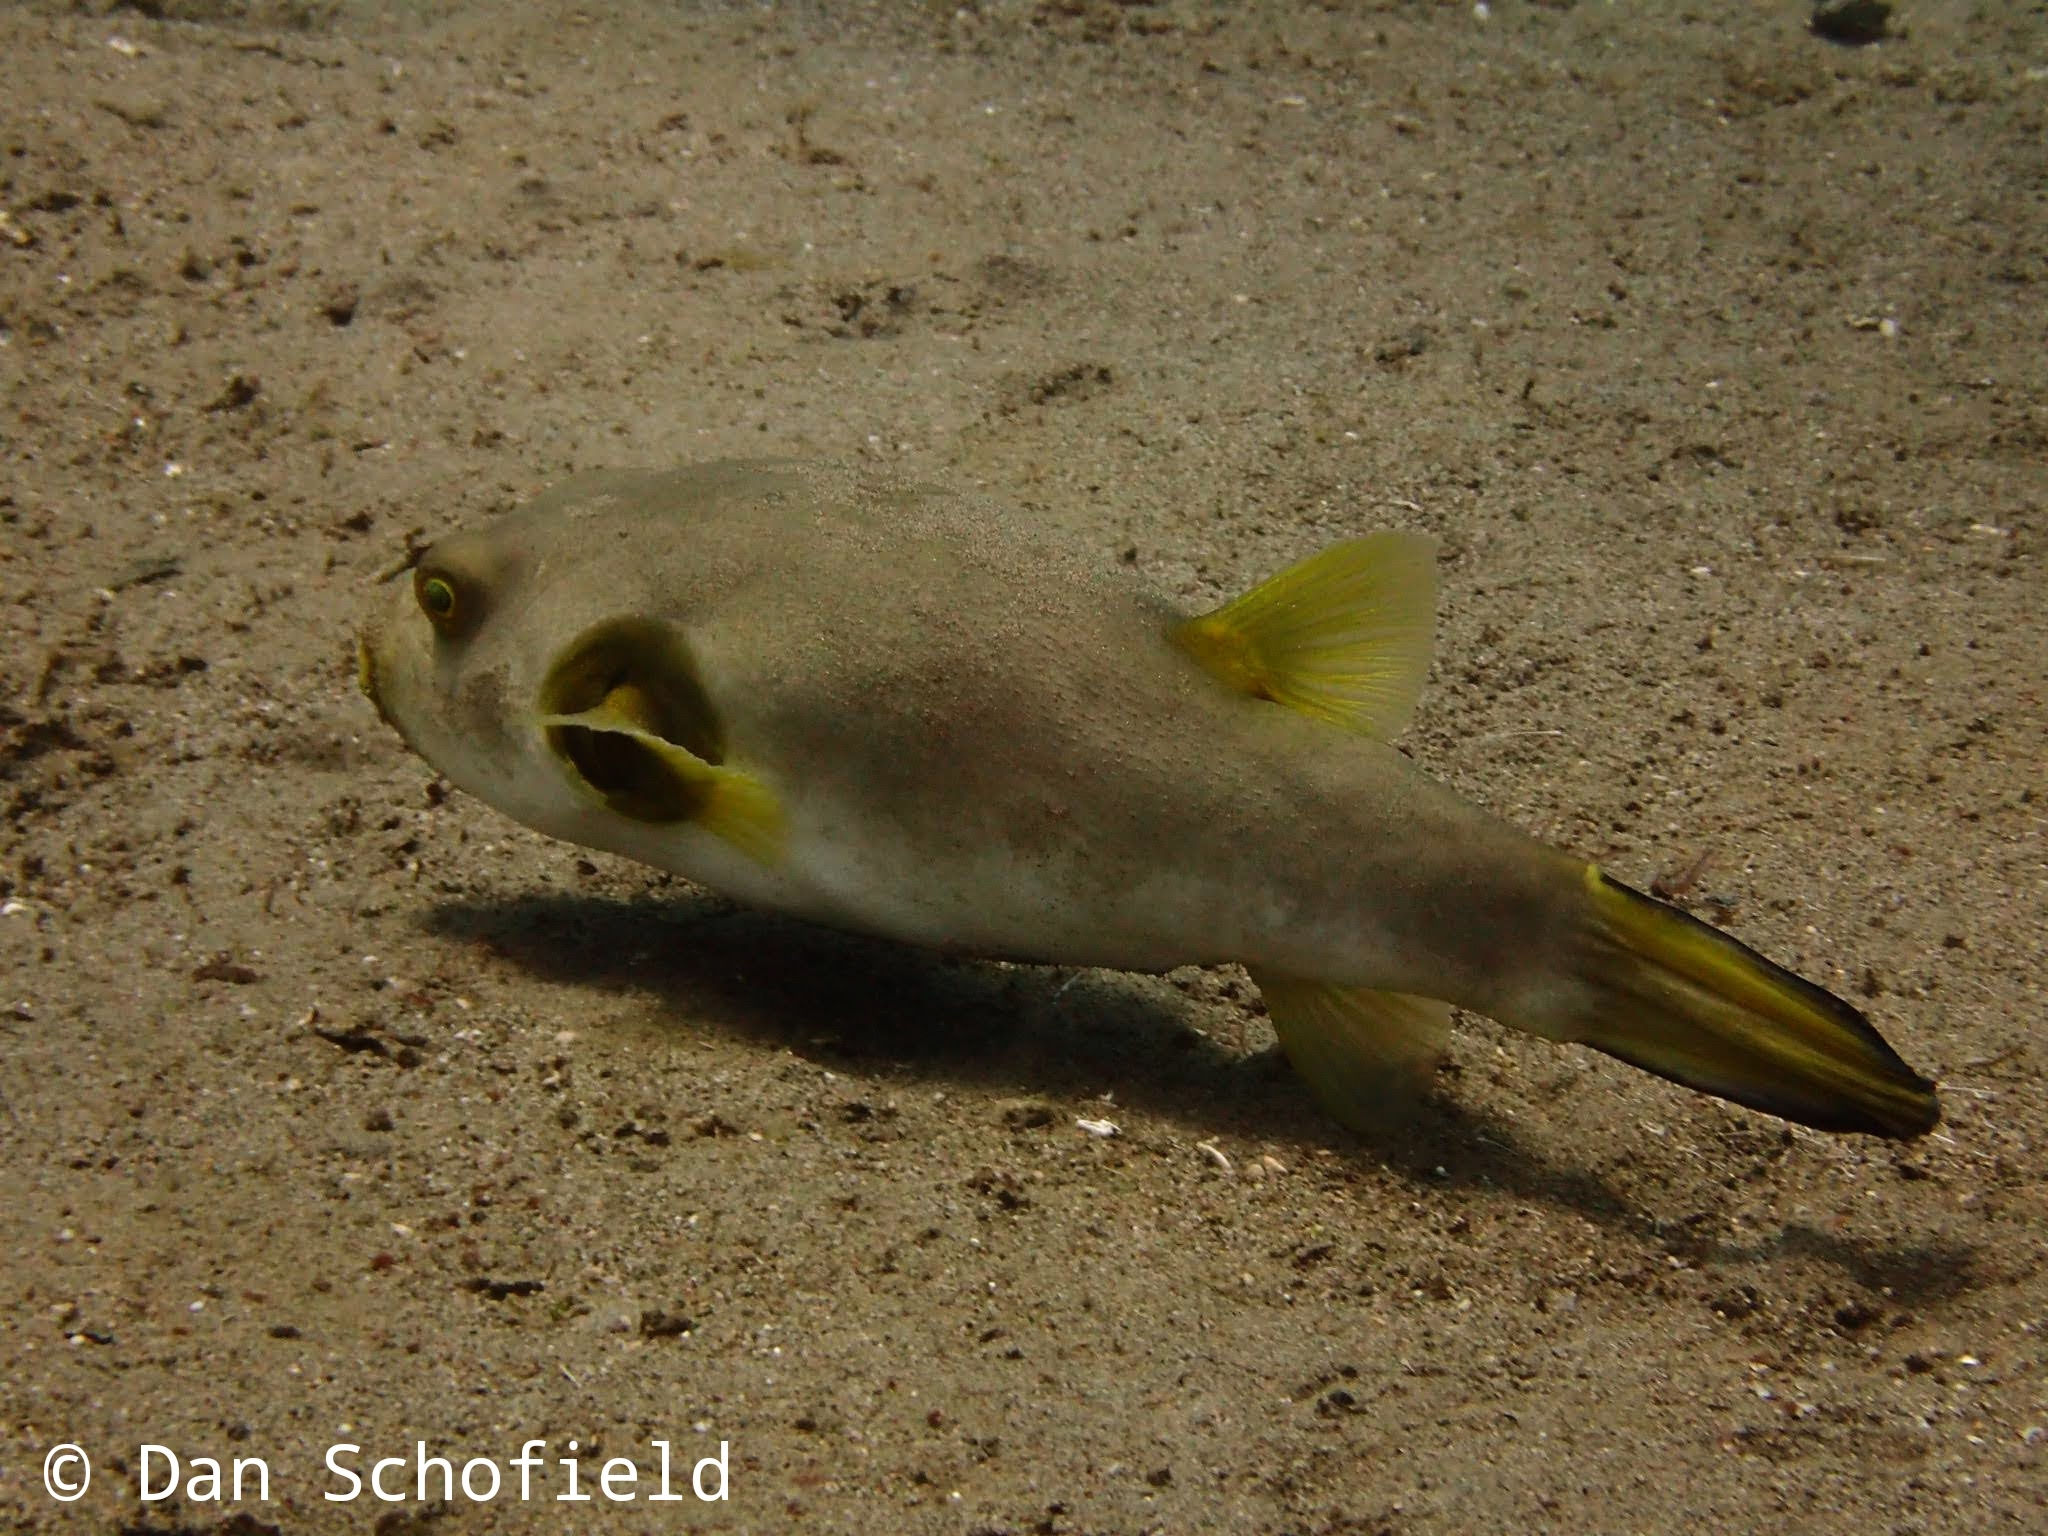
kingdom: Animalia
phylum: Chordata
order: Tetraodontiformes
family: Tetraodontidae
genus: Arothron
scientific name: Arothron immaculatus
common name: Blackedged blaasop
